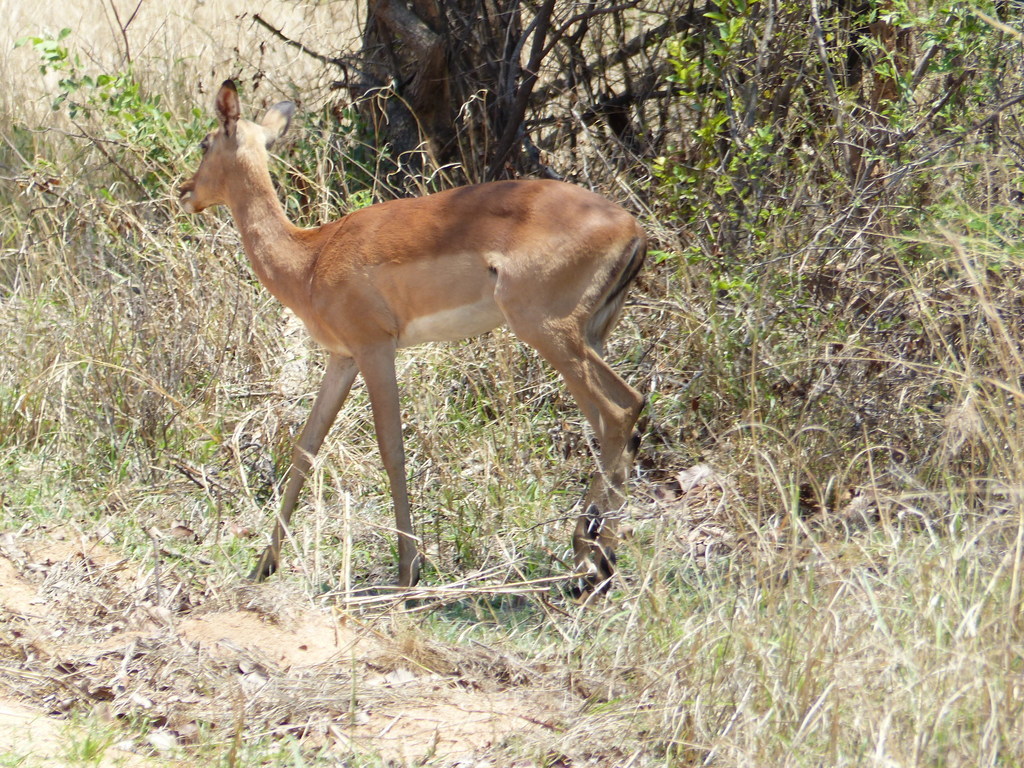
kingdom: Animalia
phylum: Chordata
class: Mammalia
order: Artiodactyla
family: Bovidae
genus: Aepyceros
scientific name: Aepyceros melampus
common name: Impala
